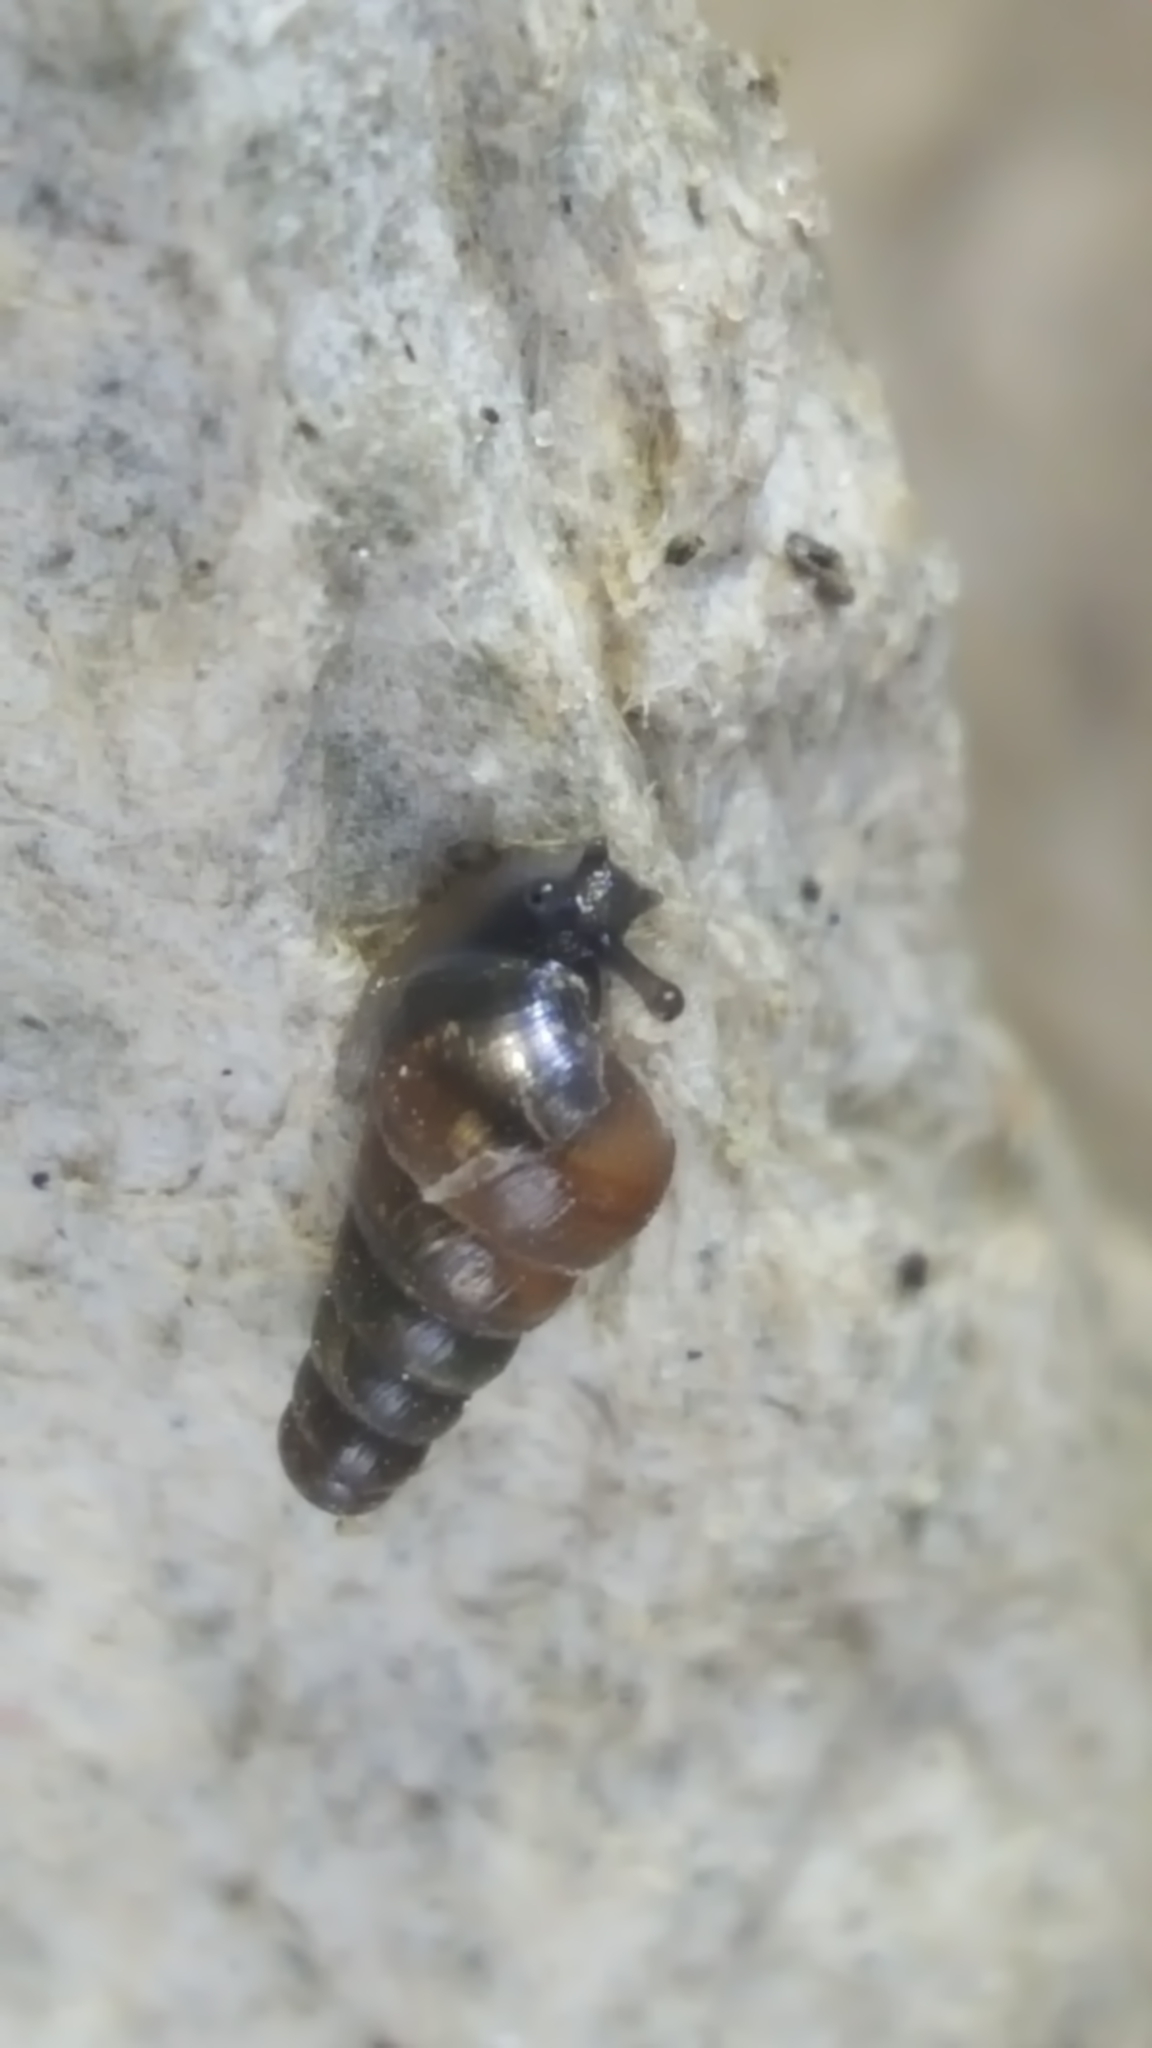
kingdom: Animalia
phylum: Mollusca
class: Gastropoda
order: Stylommatophora
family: Clausiliidae
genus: Cochlodina
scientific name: Cochlodina laminata
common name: Plaited door snail
